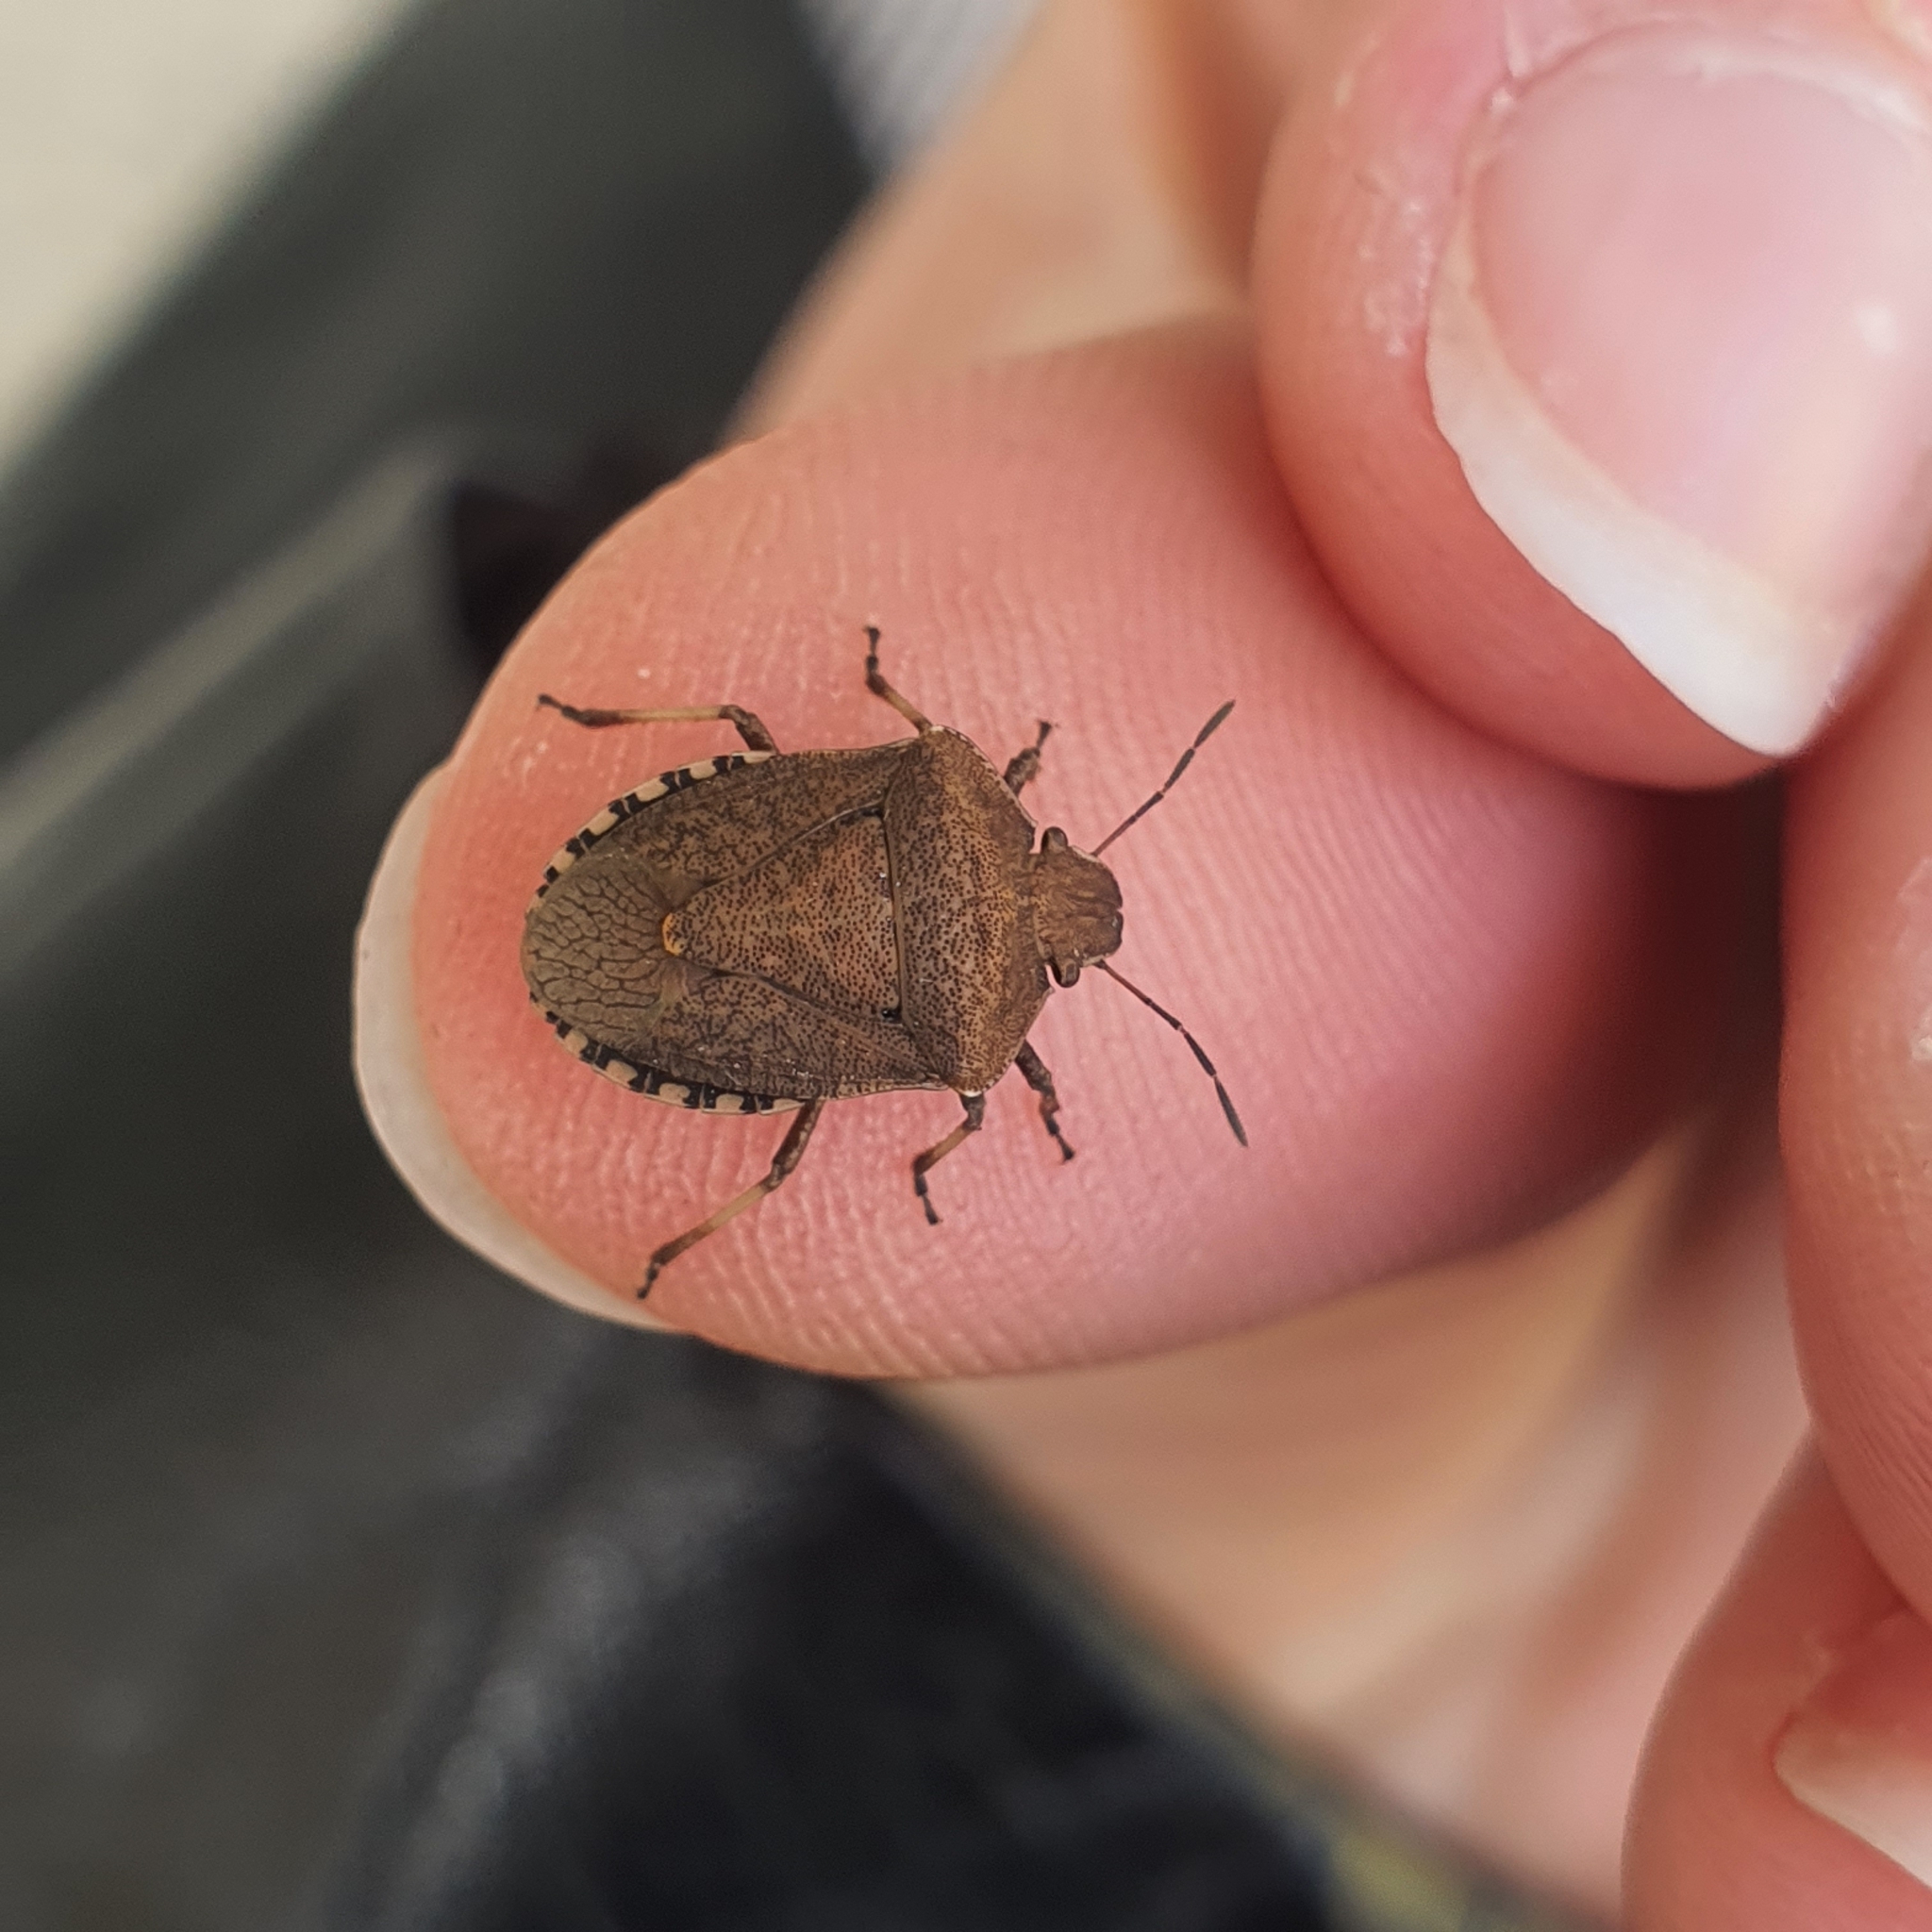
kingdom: Animalia
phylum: Arthropoda
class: Insecta
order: Hemiptera
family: Pentatomidae
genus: Dictyotus
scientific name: Dictyotus caenosus
